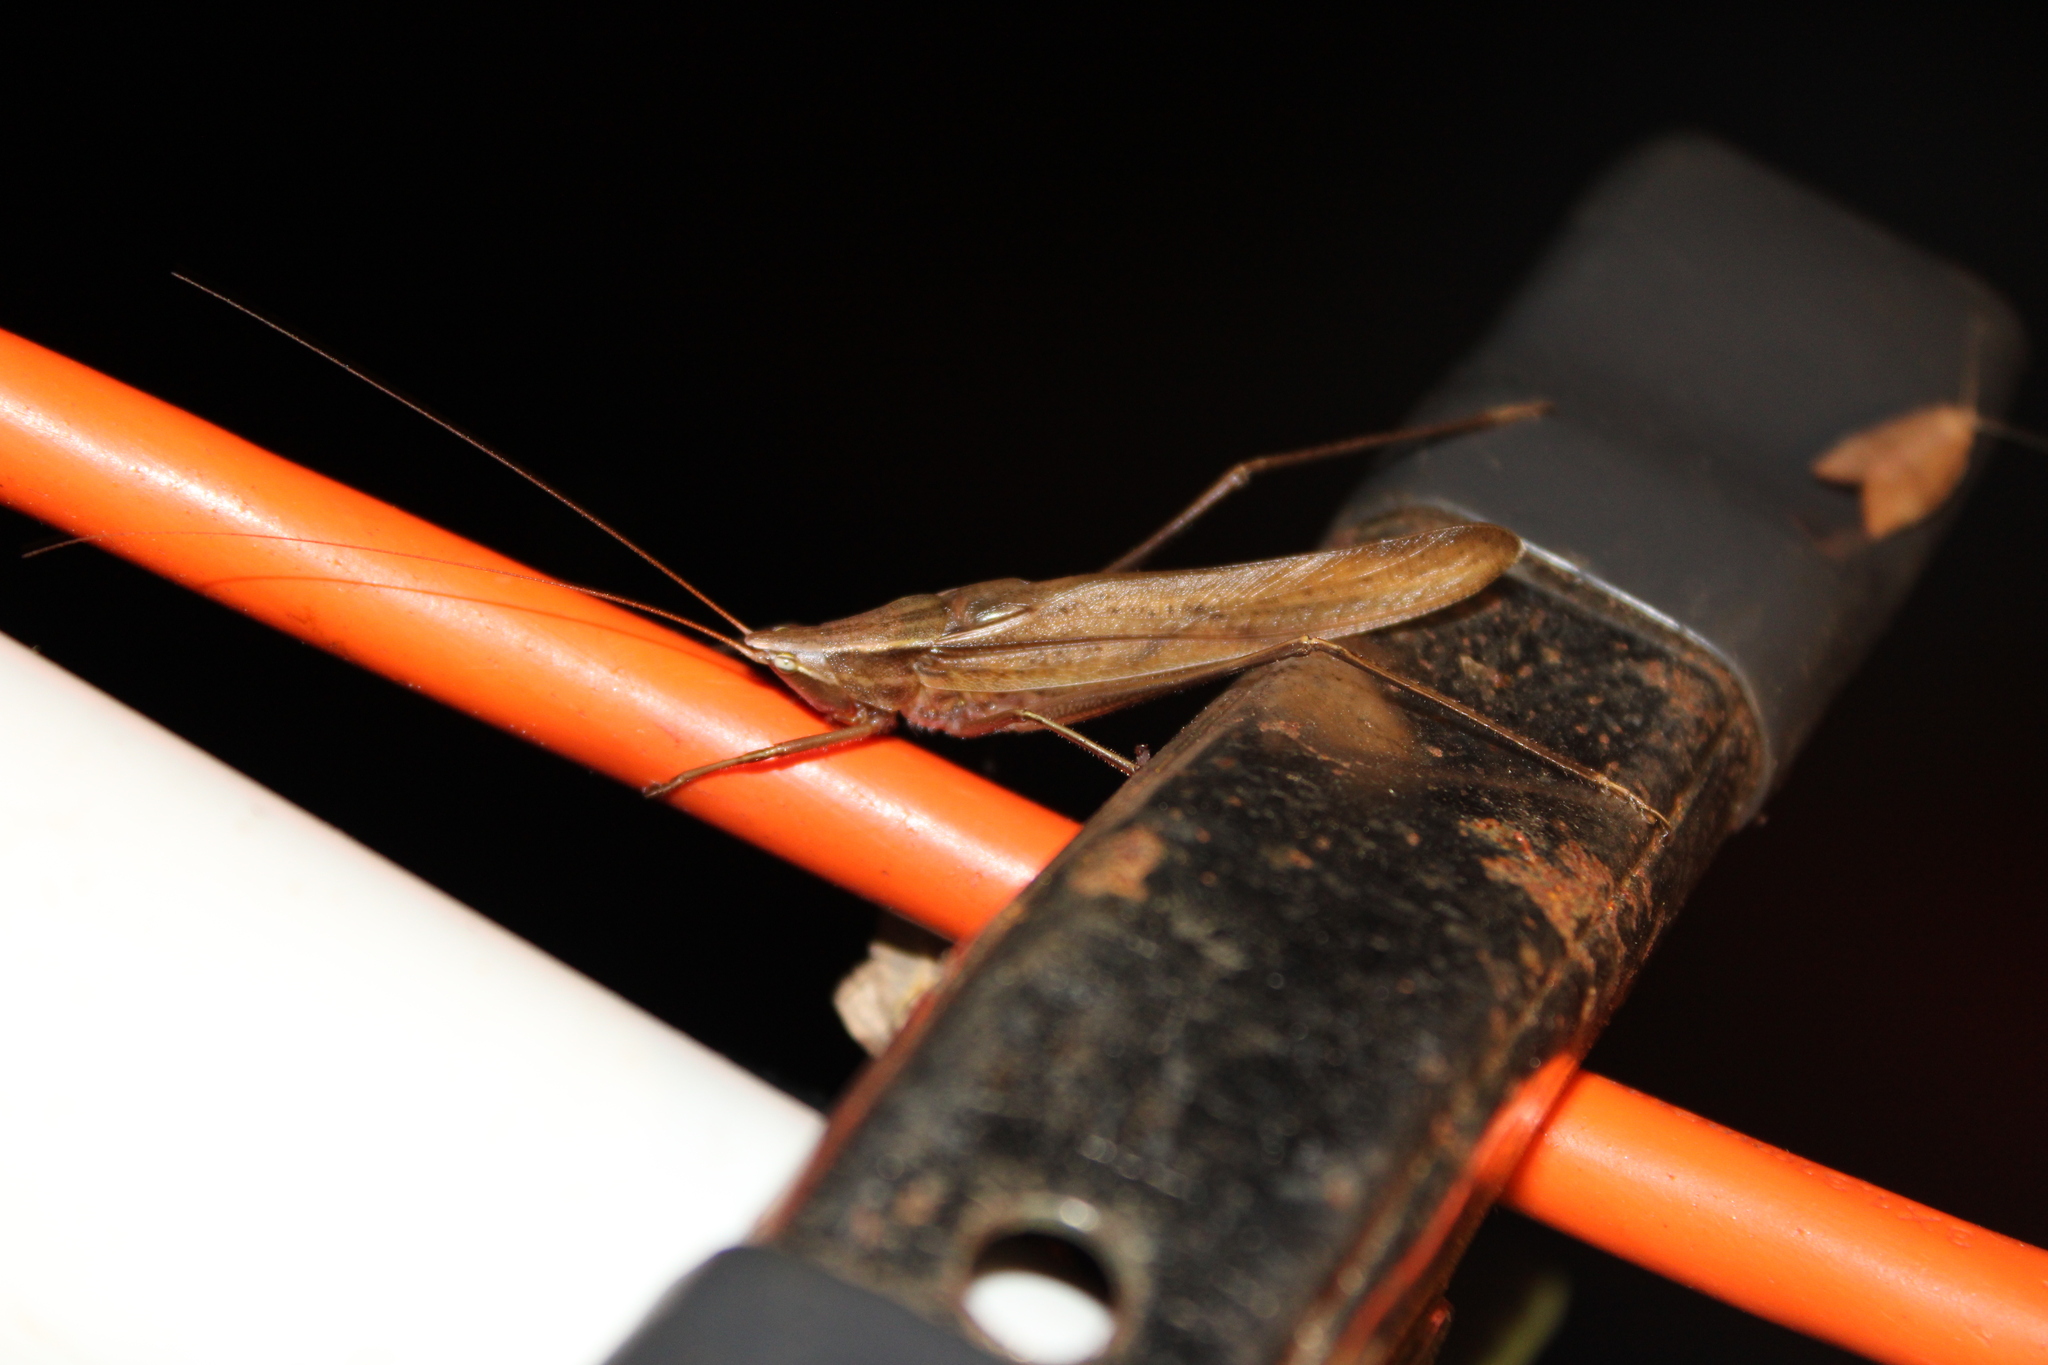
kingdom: Animalia
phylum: Arthropoda
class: Insecta
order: Orthoptera
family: Tettigoniidae
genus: Neoconocephalus
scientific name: Neoconocephalus retusus
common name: Round-tipped conehead
